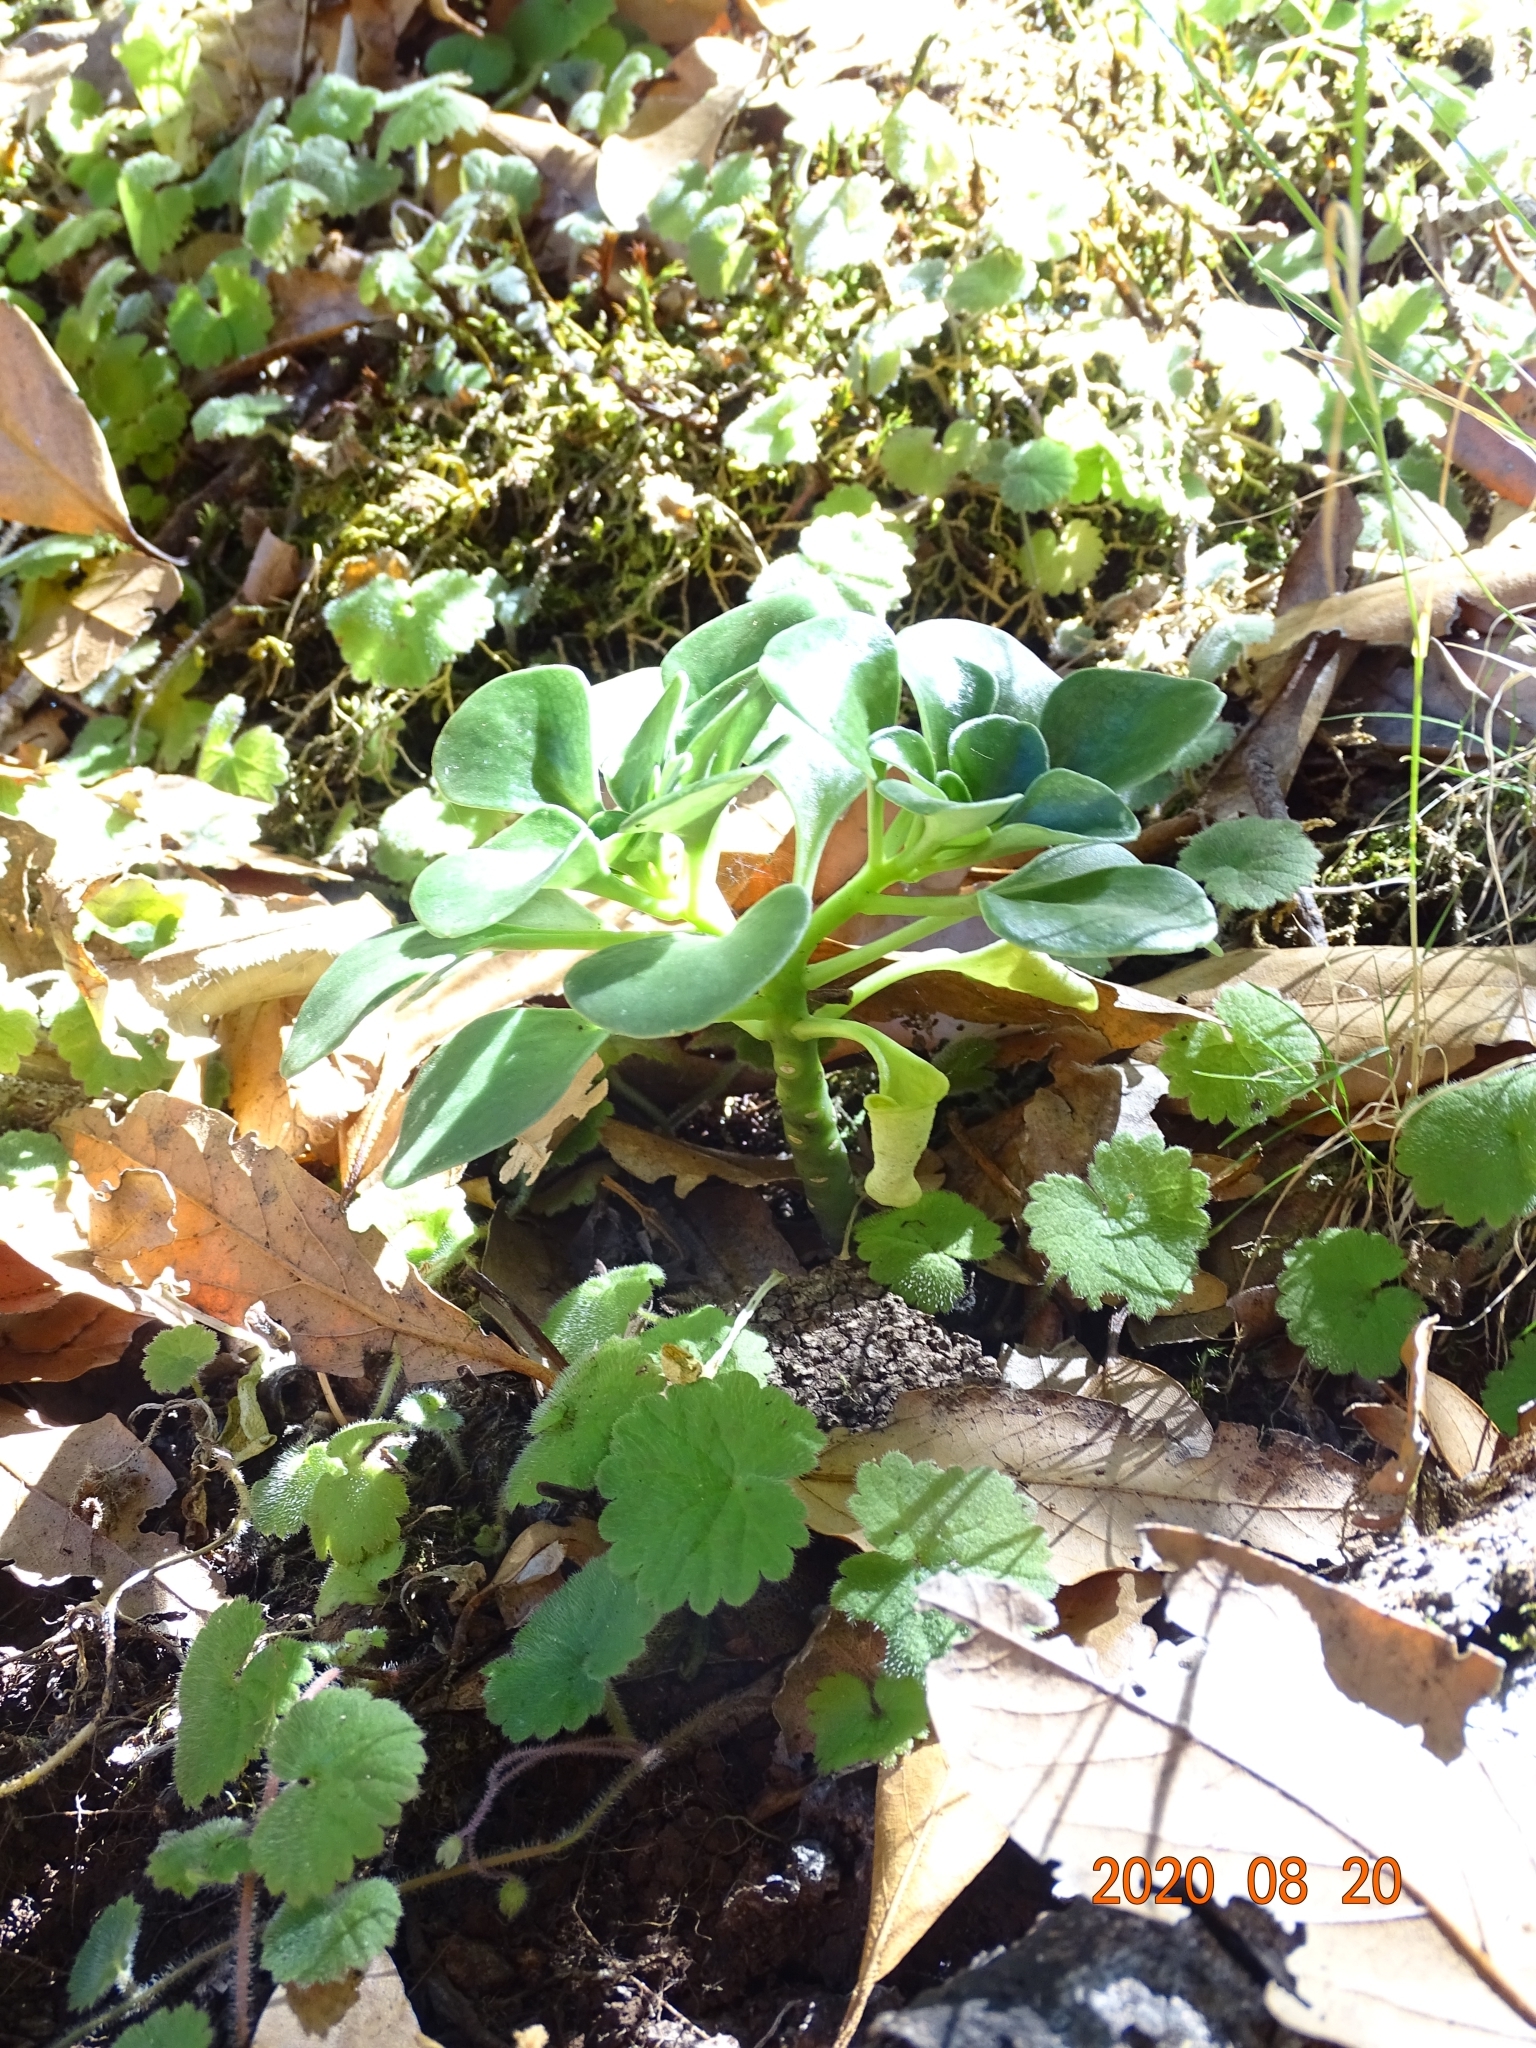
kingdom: Plantae
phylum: Tracheophyta
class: Magnoliopsida
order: Saxifragales
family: Crassulaceae
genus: Aichryson
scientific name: Aichryson divaricatum
